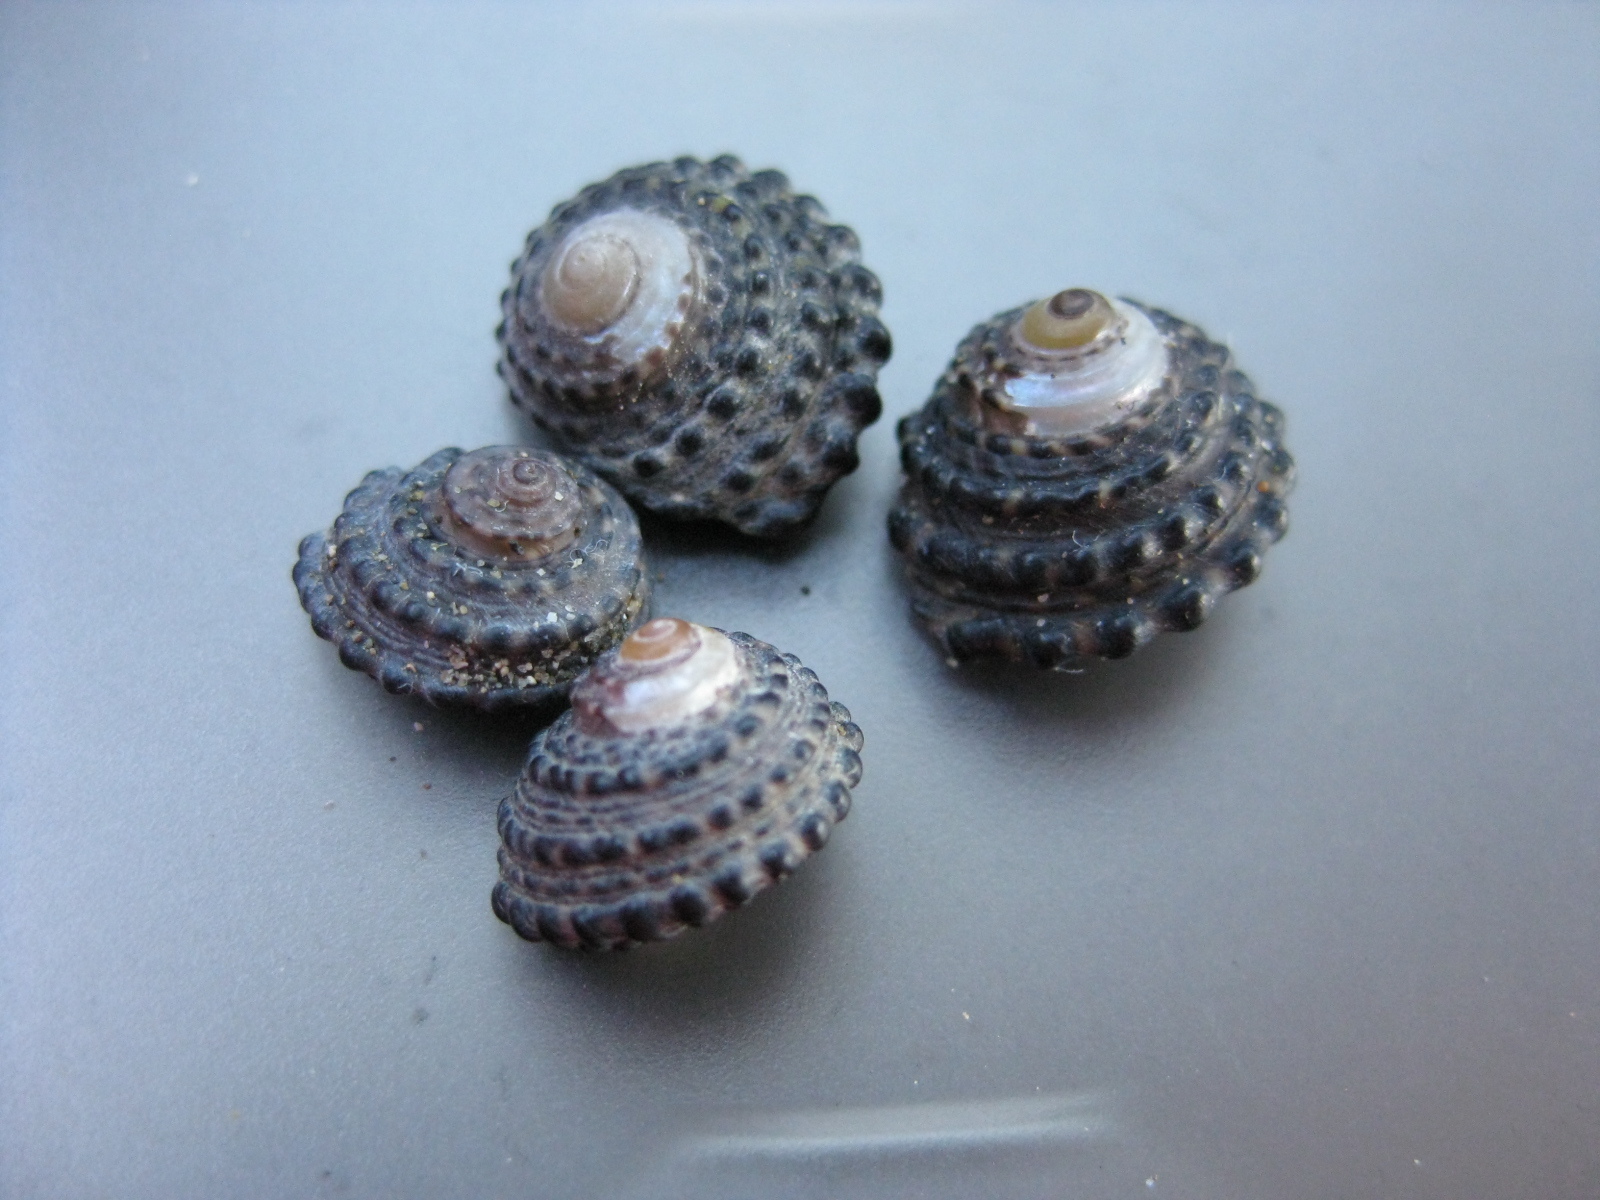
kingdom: Animalia
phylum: Mollusca
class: Gastropoda
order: Trochida
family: Trochidae
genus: Diloma
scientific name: Diloma bicanaliculatum
